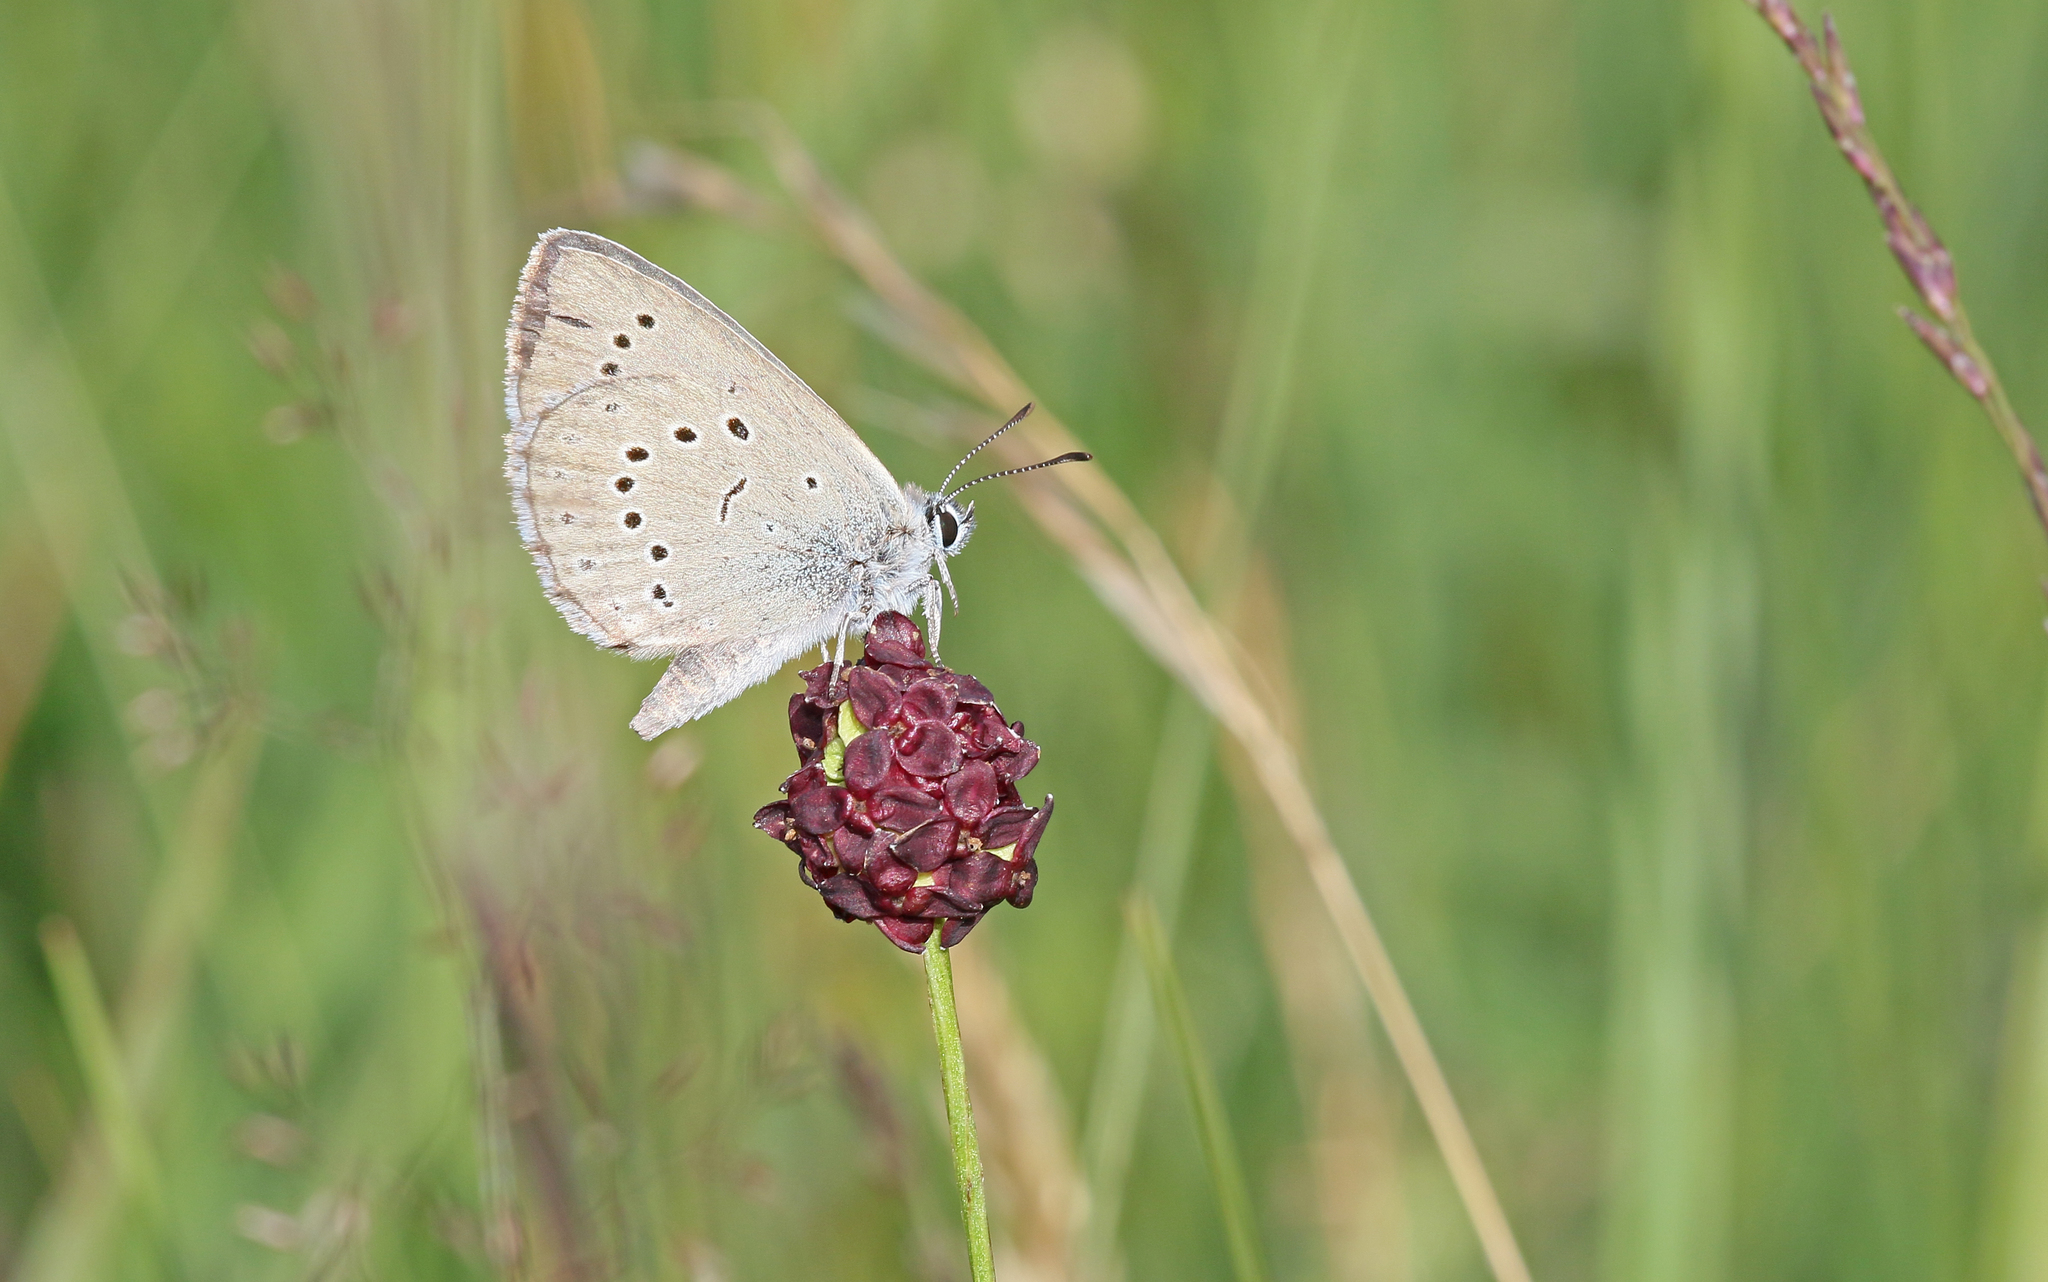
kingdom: Animalia
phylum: Arthropoda
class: Insecta
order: Lepidoptera
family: Lycaenidae
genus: Phengaris
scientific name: Phengaris teleius
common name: Scarce large blue
